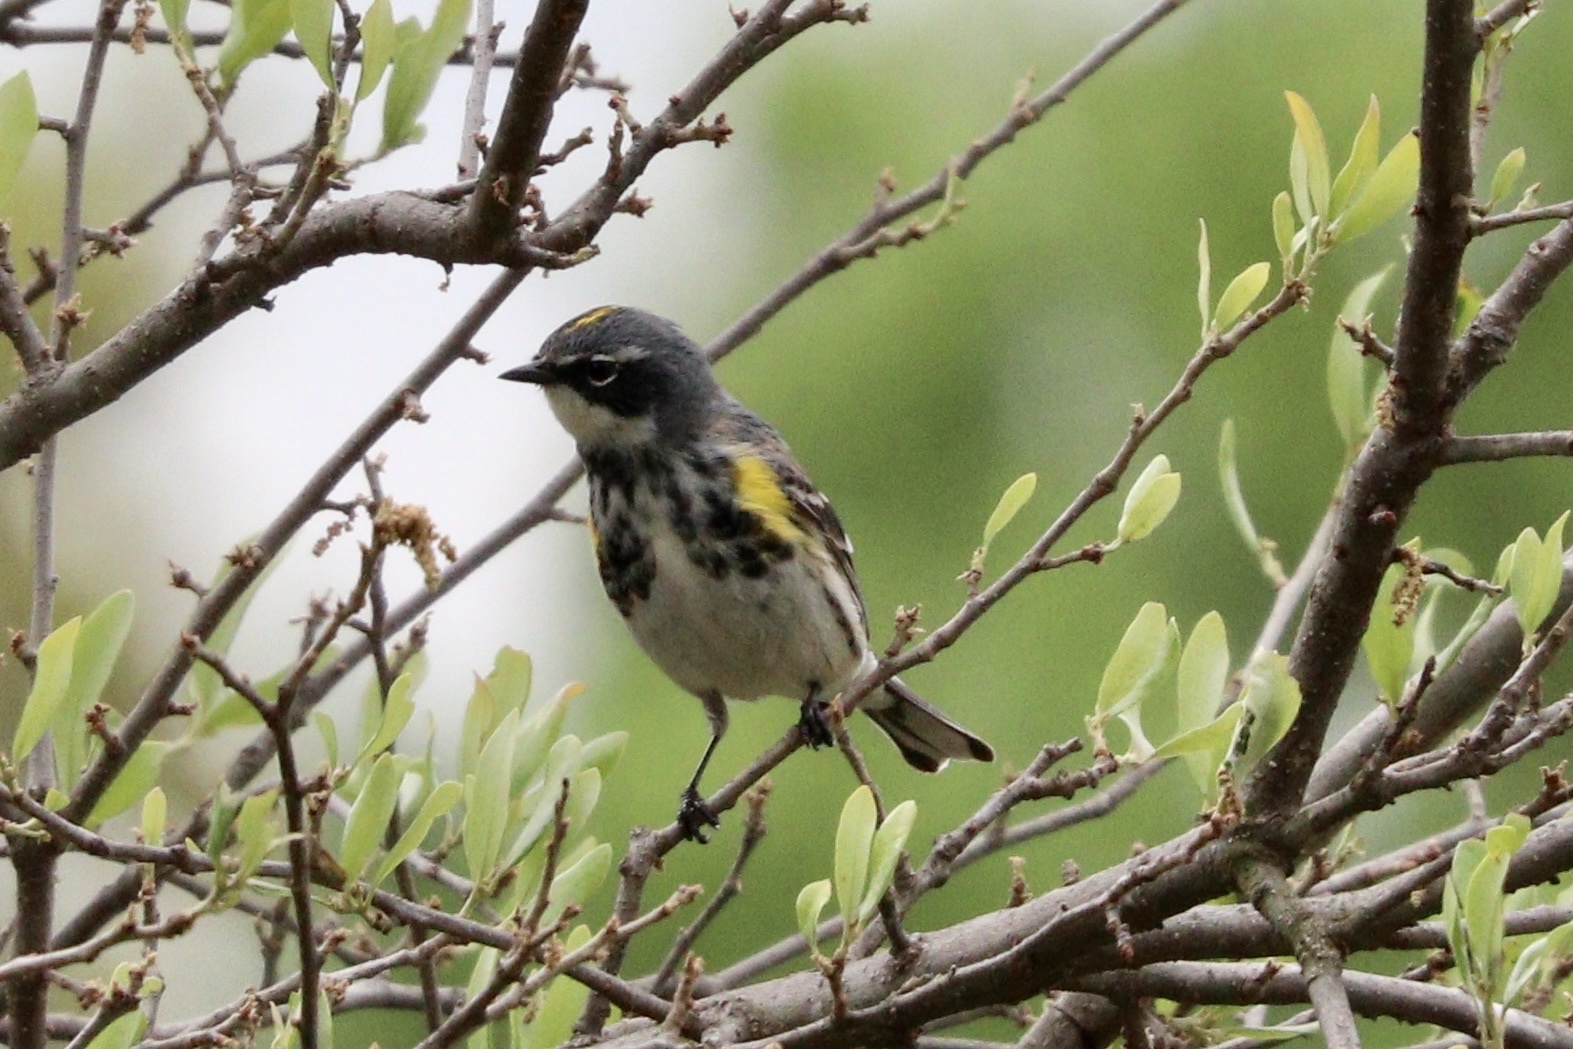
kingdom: Animalia
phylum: Chordata
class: Aves
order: Passeriformes
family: Parulidae
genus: Setophaga
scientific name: Setophaga coronata
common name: Myrtle warbler
